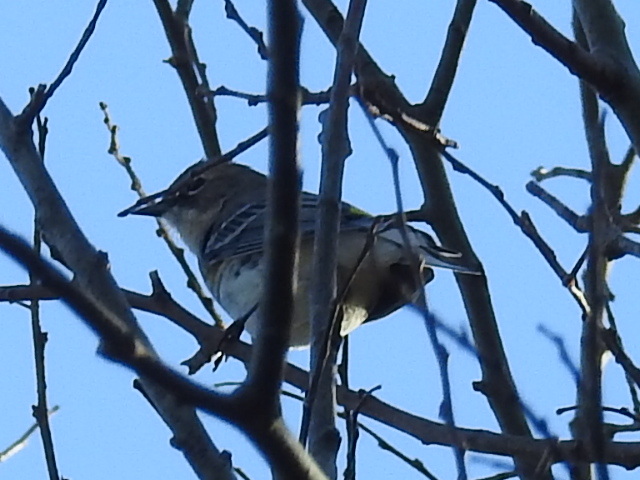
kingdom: Animalia
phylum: Chordata
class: Aves
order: Passeriformes
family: Parulidae
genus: Setophaga
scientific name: Setophaga coronata
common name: Myrtle warbler
